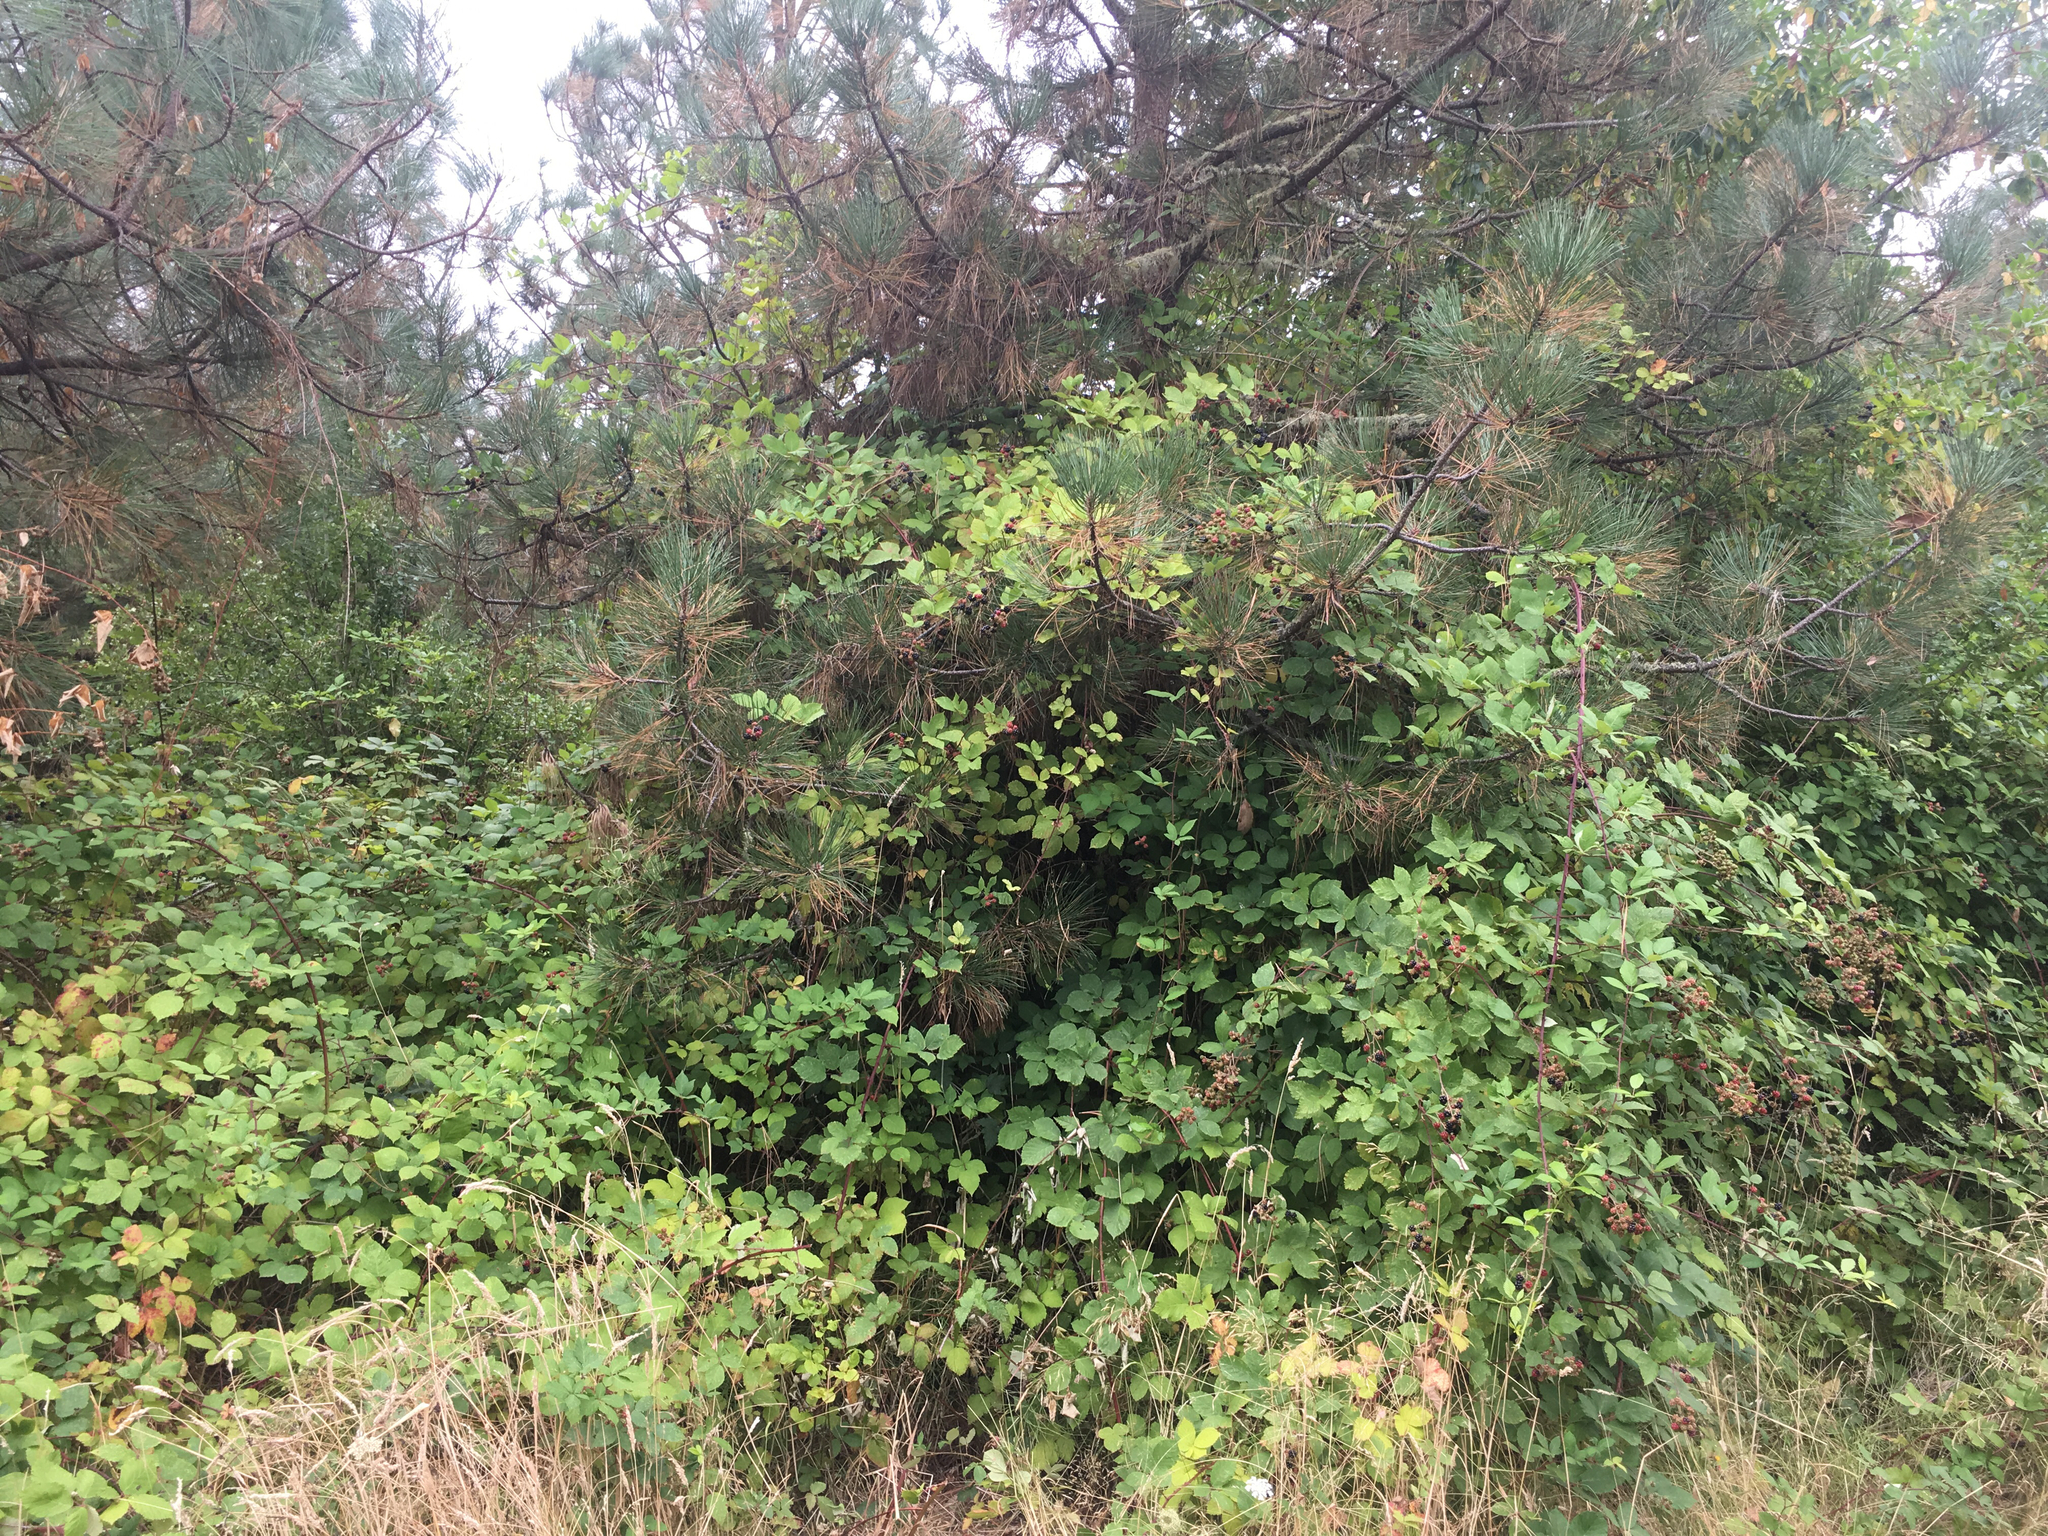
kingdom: Plantae
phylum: Tracheophyta
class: Magnoliopsida
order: Rosales
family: Rosaceae
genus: Rubus
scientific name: Rubus armeniacus
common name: Himalayan blackberry
